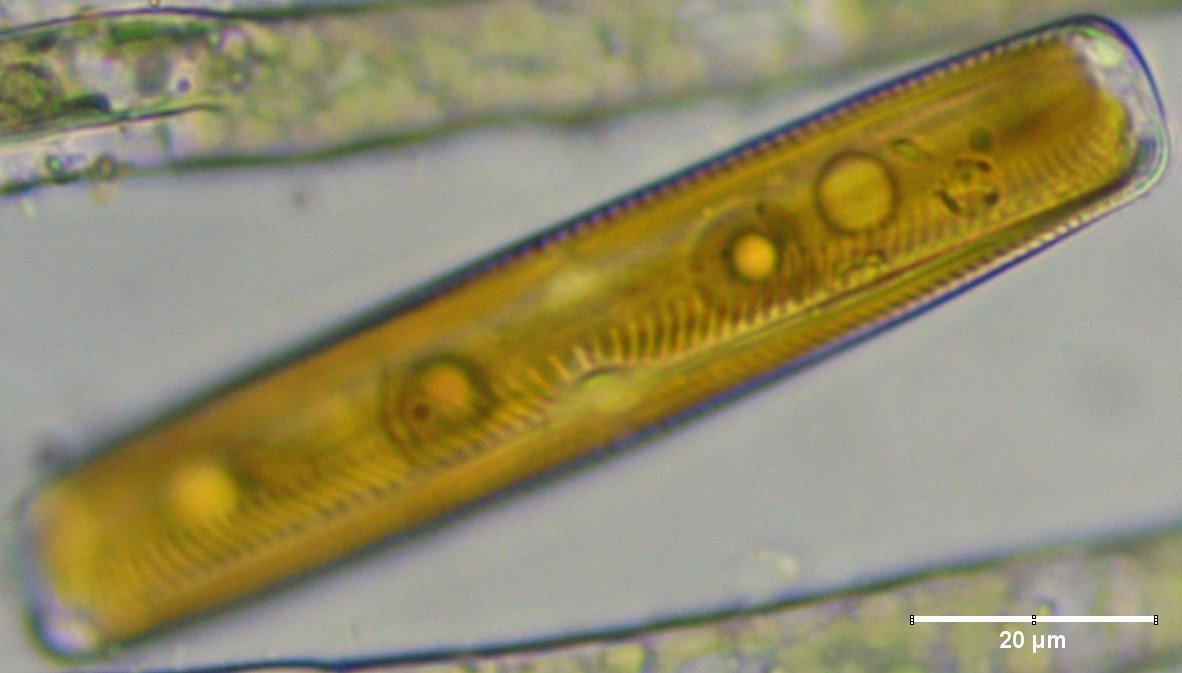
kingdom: Chromista
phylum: Ochrophyta
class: Bacillariophyceae
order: Naviculales
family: Naviculaceae
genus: Navicula
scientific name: Navicula oblonga
